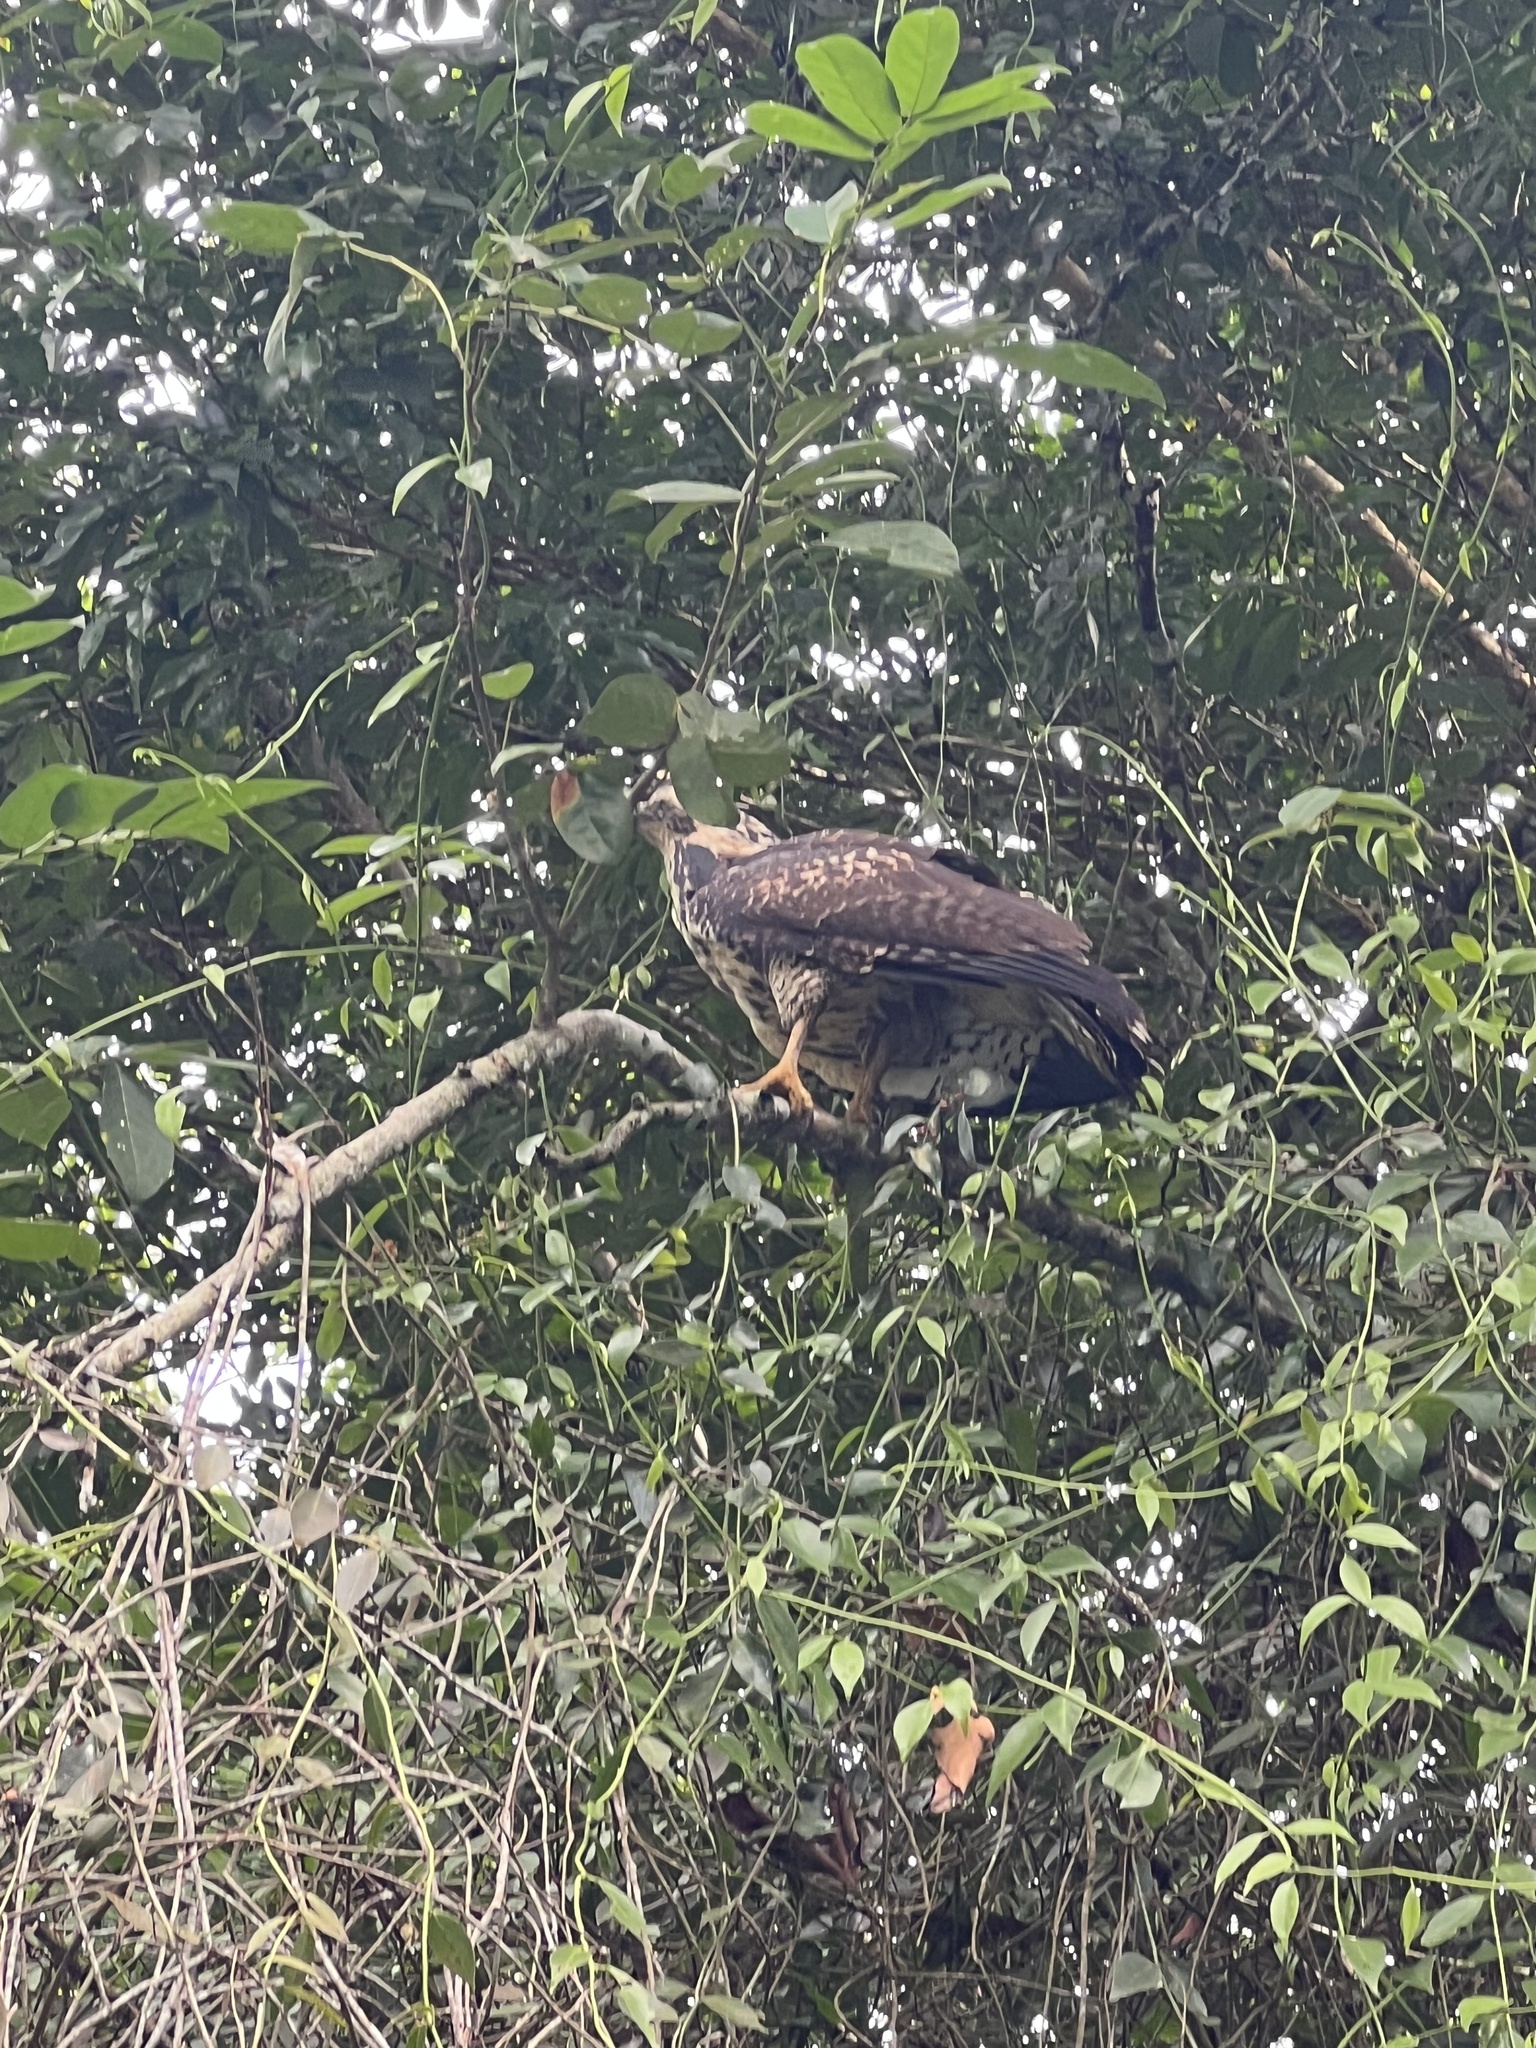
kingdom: Animalia
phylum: Chordata
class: Aves
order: Accipitriformes
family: Accipitridae
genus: Buteogallus
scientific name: Buteogallus anthracinus
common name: Common black hawk
